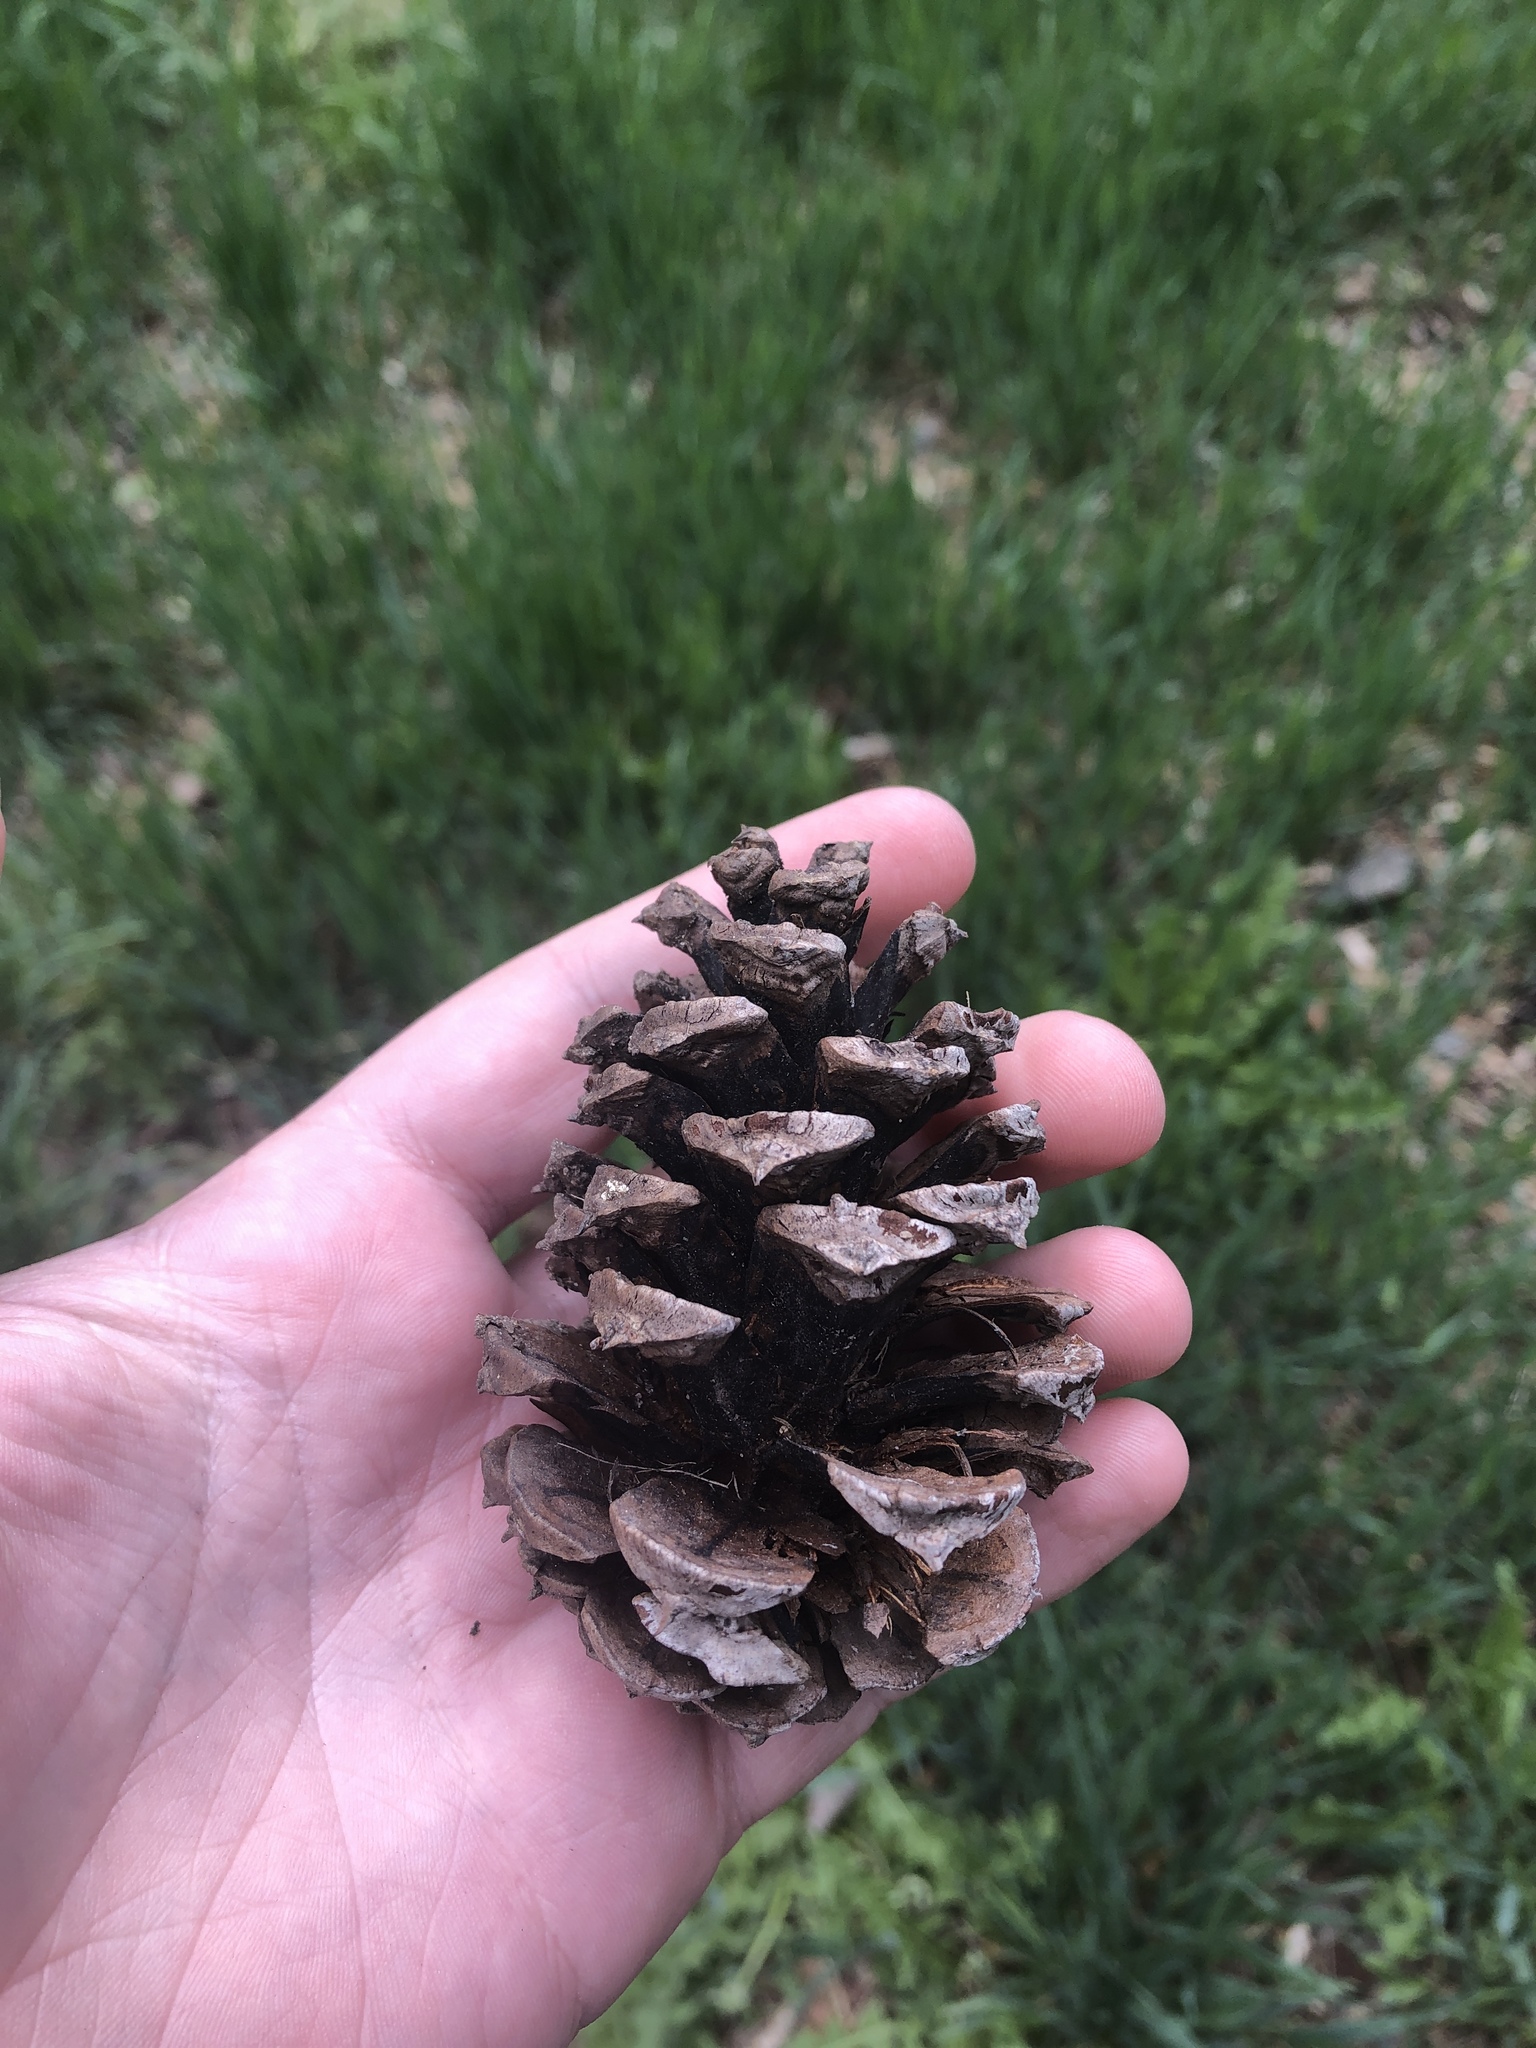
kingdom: Plantae
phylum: Tracheophyta
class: Pinopsida
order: Pinales
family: Pinaceae
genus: Pinus
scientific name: Pinus ponderosa
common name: Western yellow-pine
